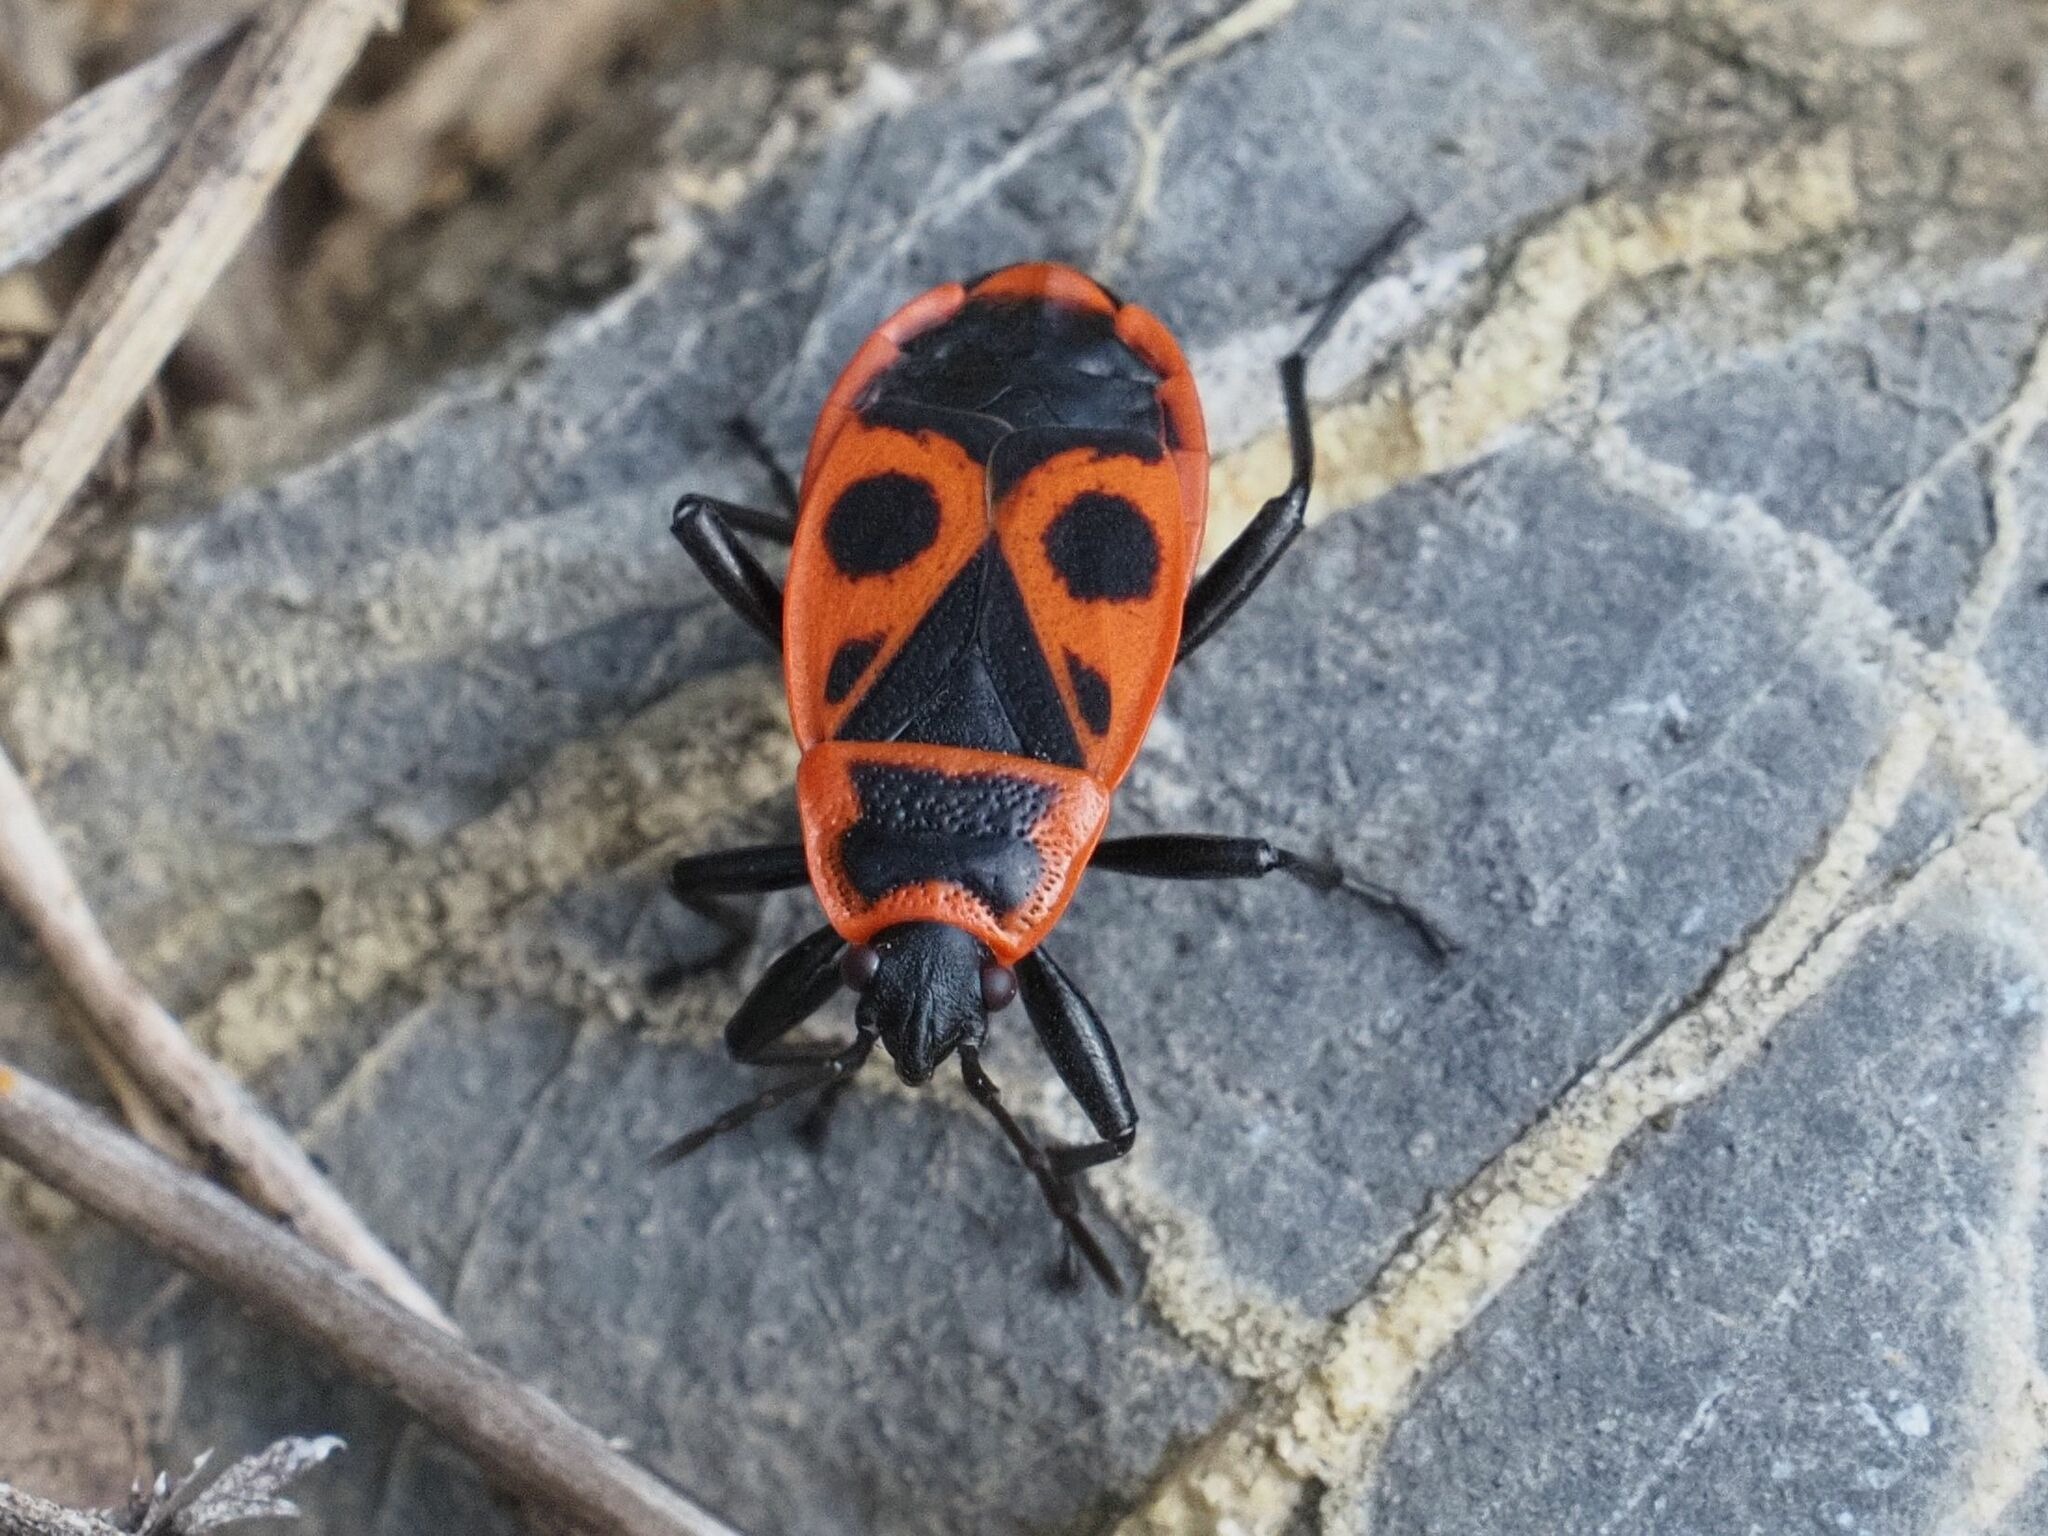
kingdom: Animalia
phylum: Arthropoda
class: Insecta
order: Hemiptera
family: Pyrrhocoridae
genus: Pyrrhocoris
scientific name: Pyrrhocoris apterus
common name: Firebug
